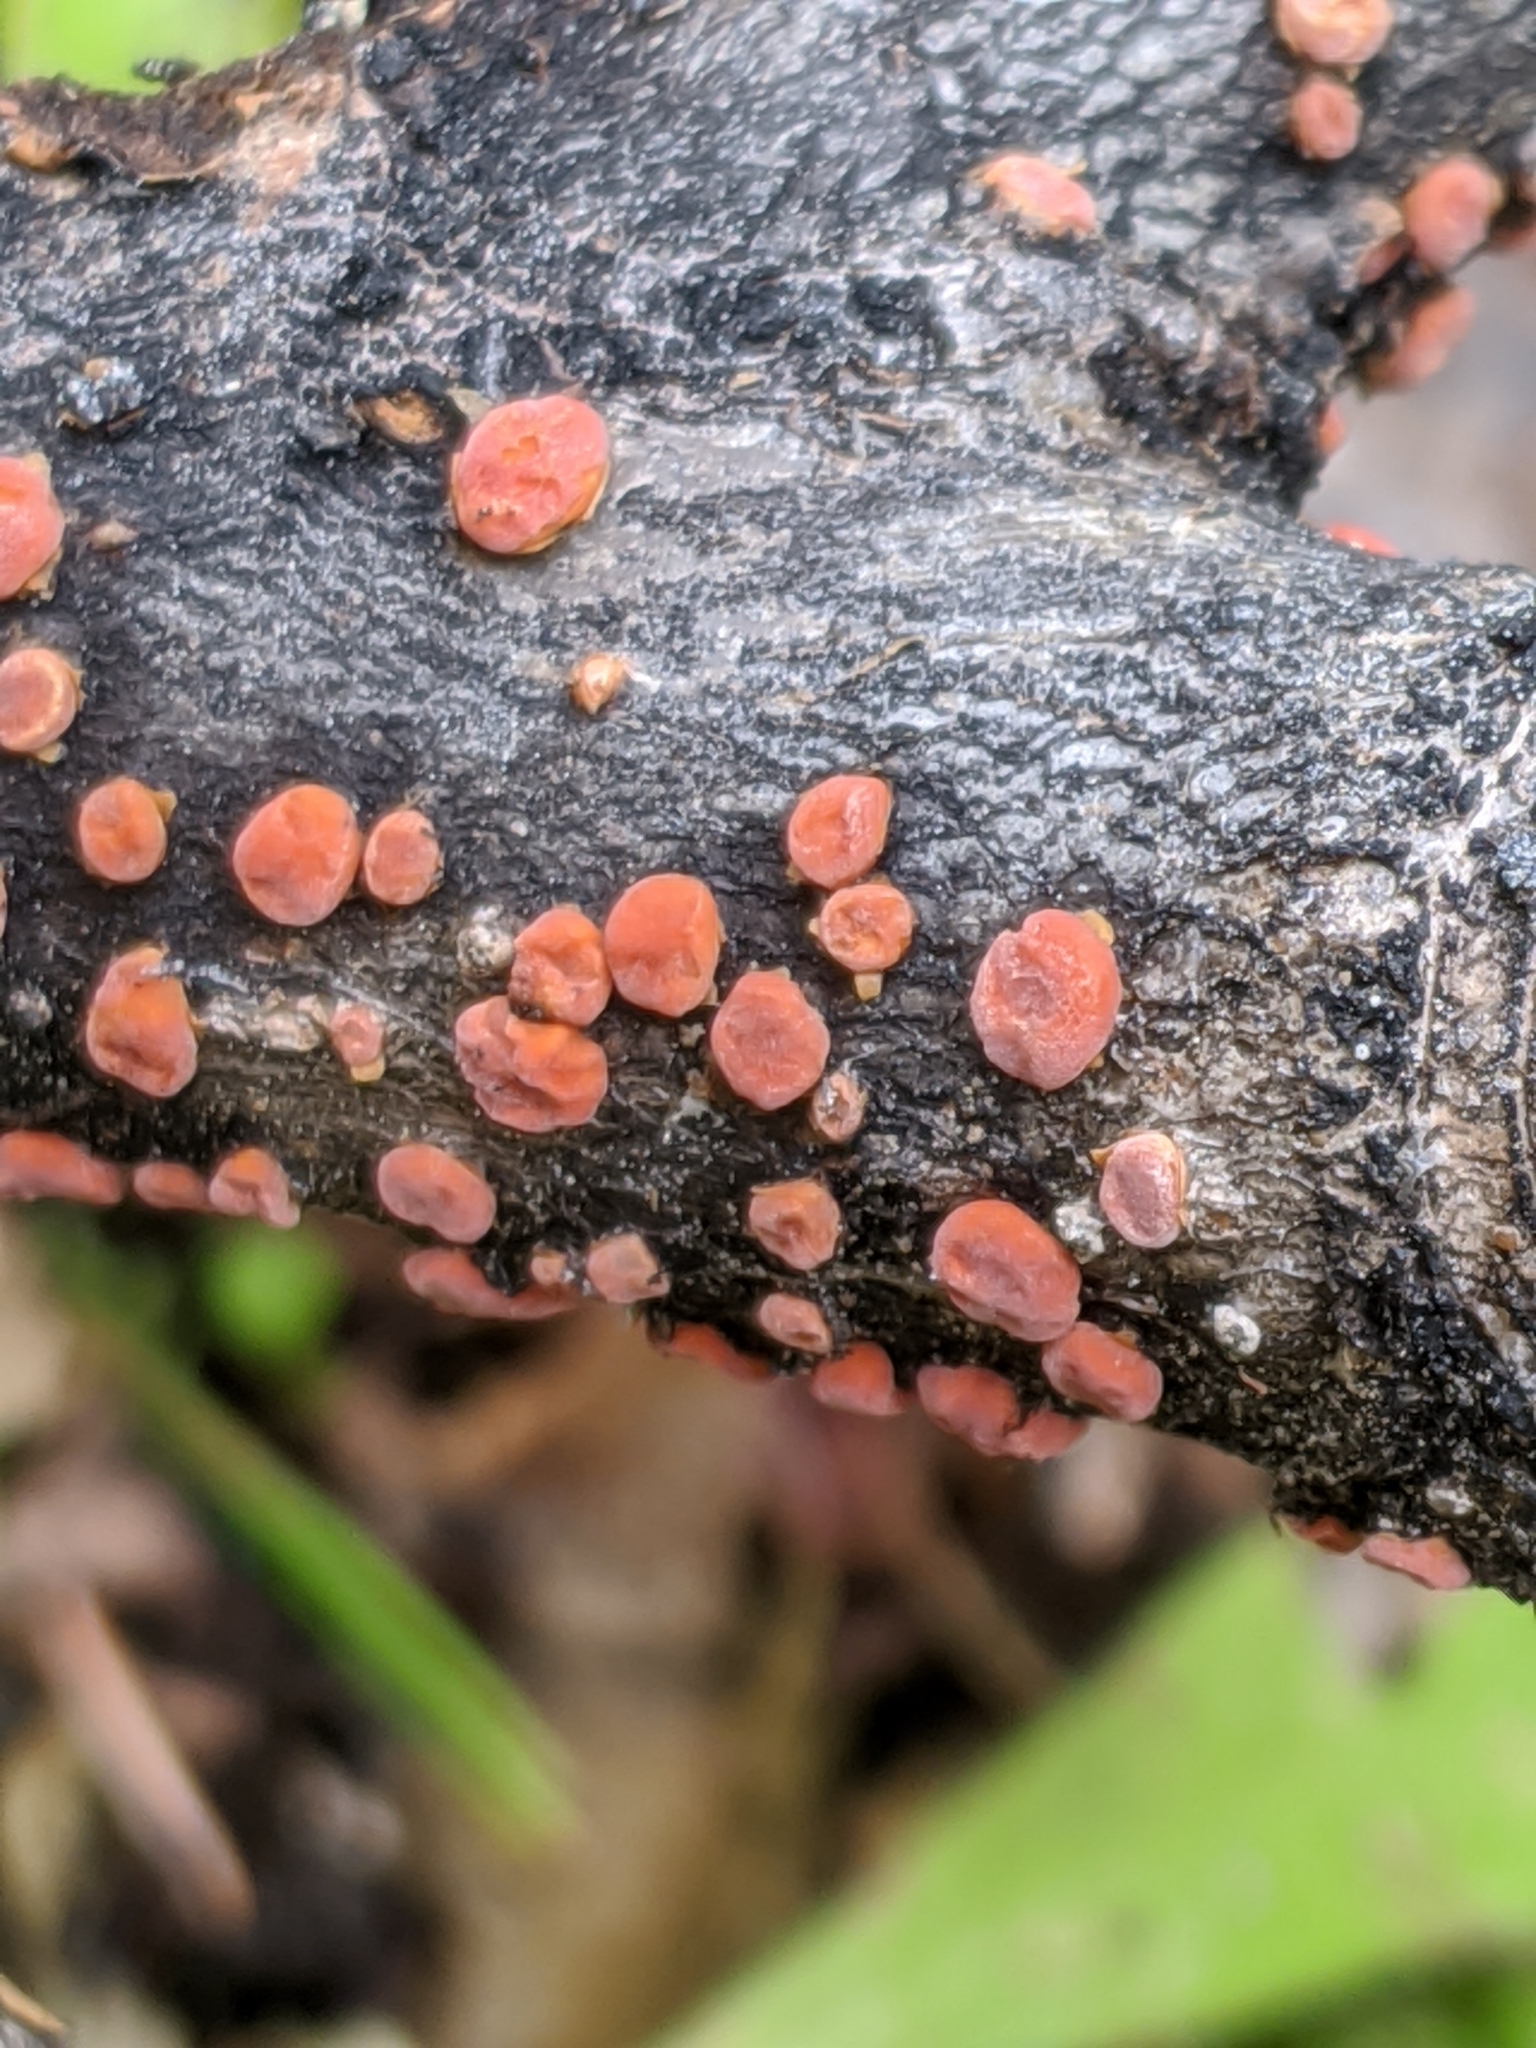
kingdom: Fungi
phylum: Basidiomycota
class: Agaricomycetes
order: Russulales
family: Peniophoraceae
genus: Peniophora
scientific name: Peniophora rufa
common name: Red tree brain fungus
